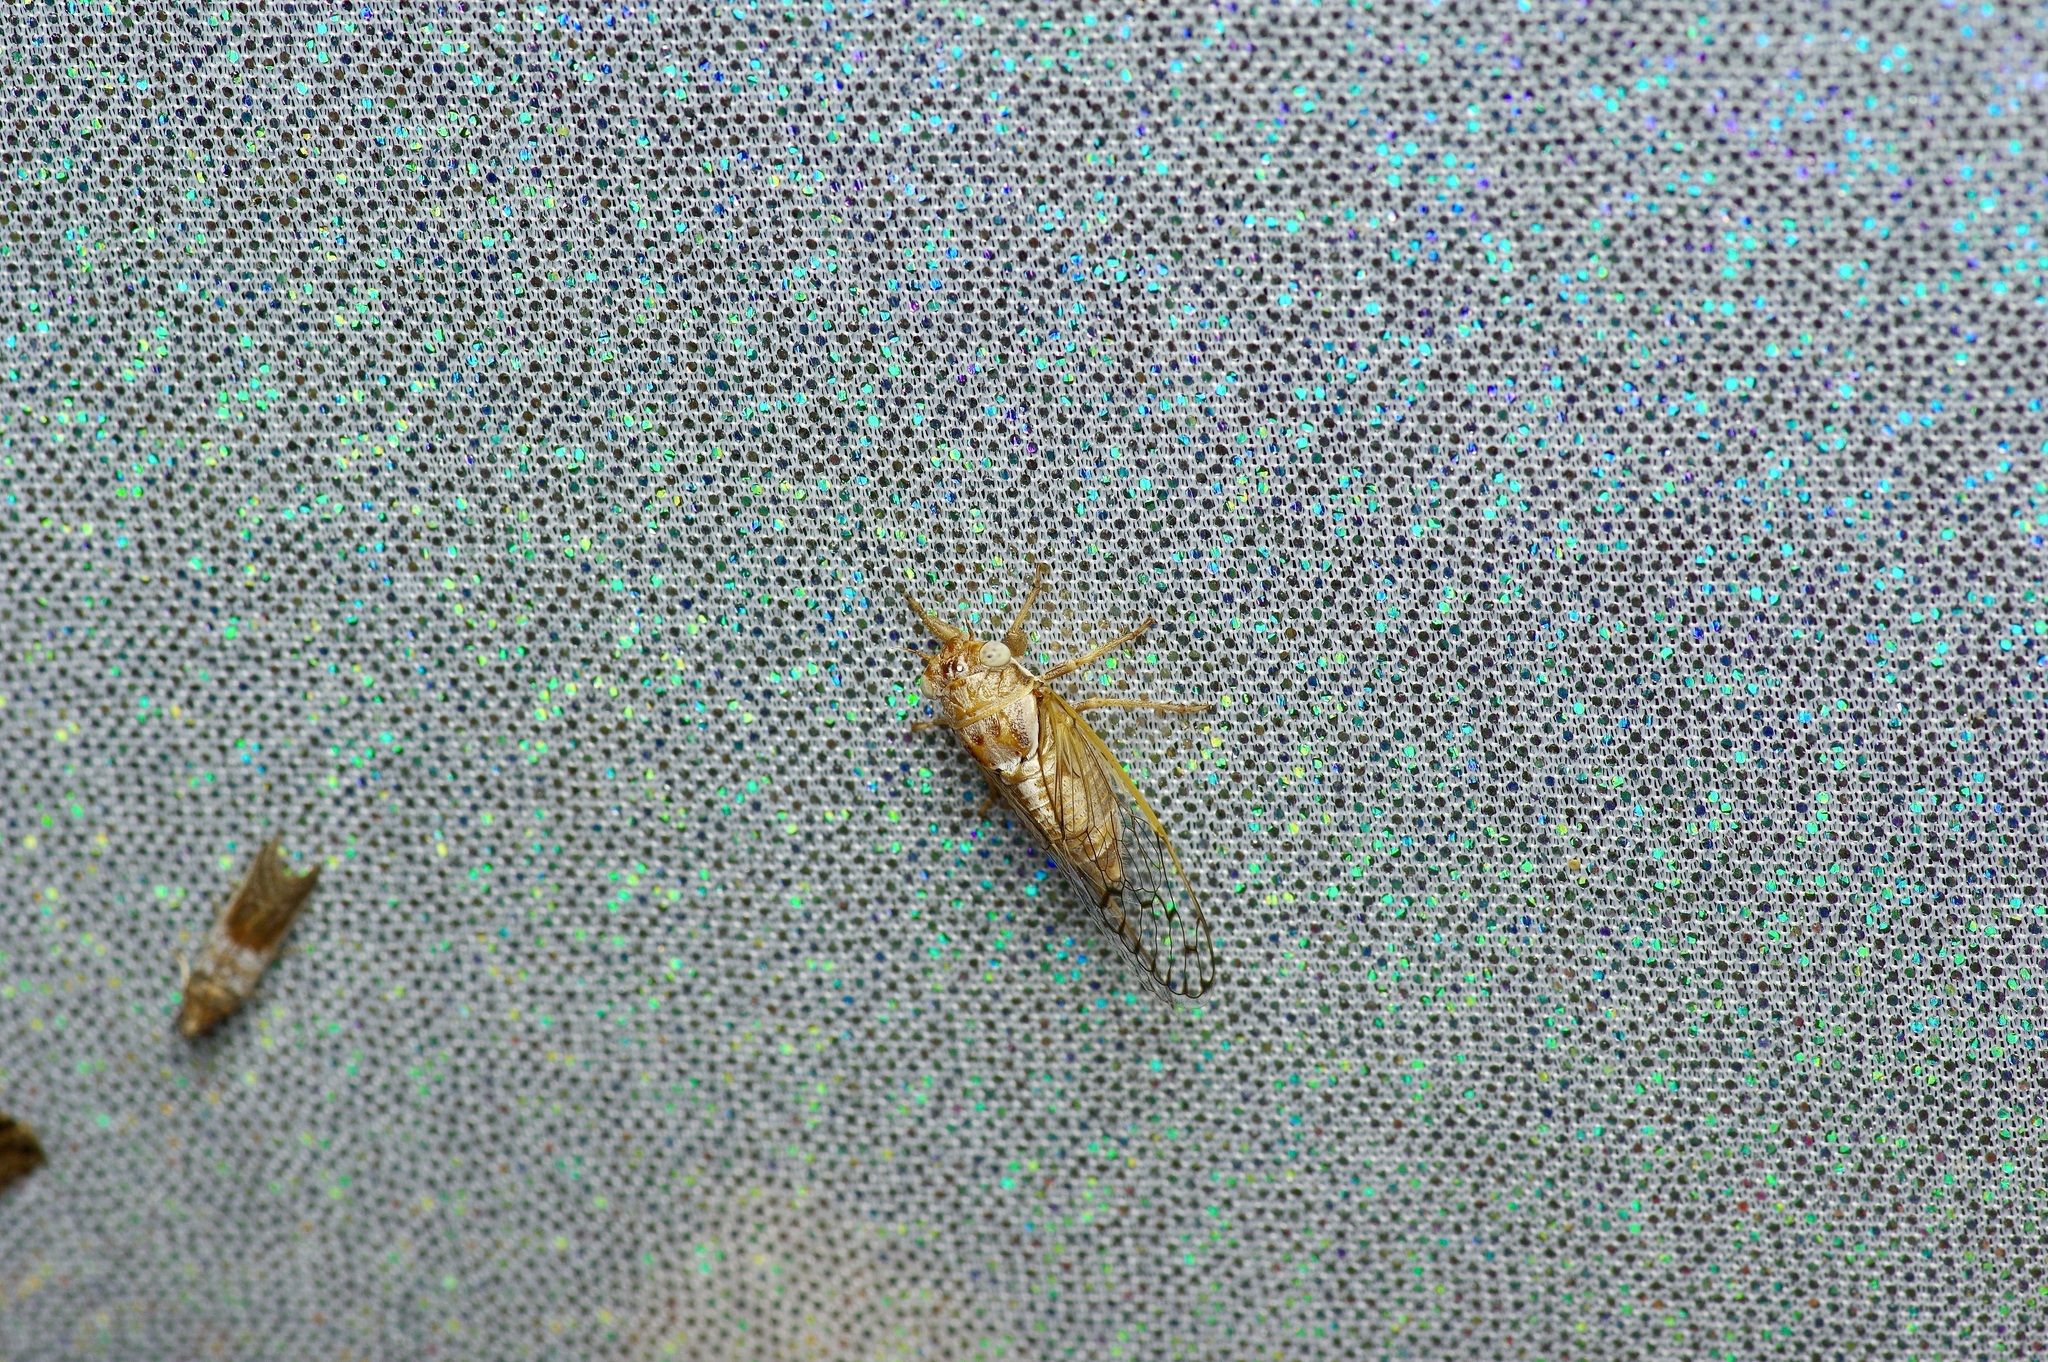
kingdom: Animalia
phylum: Arthropoda
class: Insecta
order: Hemiptera
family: Cicadidae
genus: Beameria
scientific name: Beameria venosa
